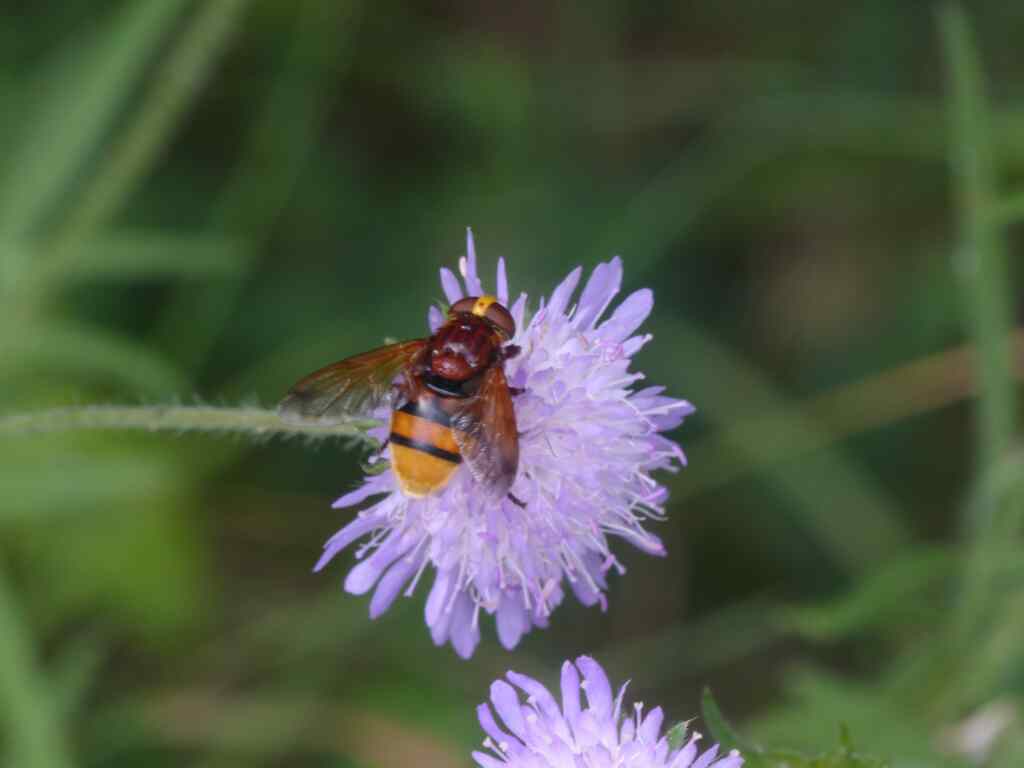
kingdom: Animalia
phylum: Arthropoda
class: Insecta
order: Diptera
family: Syrphidae
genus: Volucella
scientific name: Volucella zonaria
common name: Hornet hoverfly
